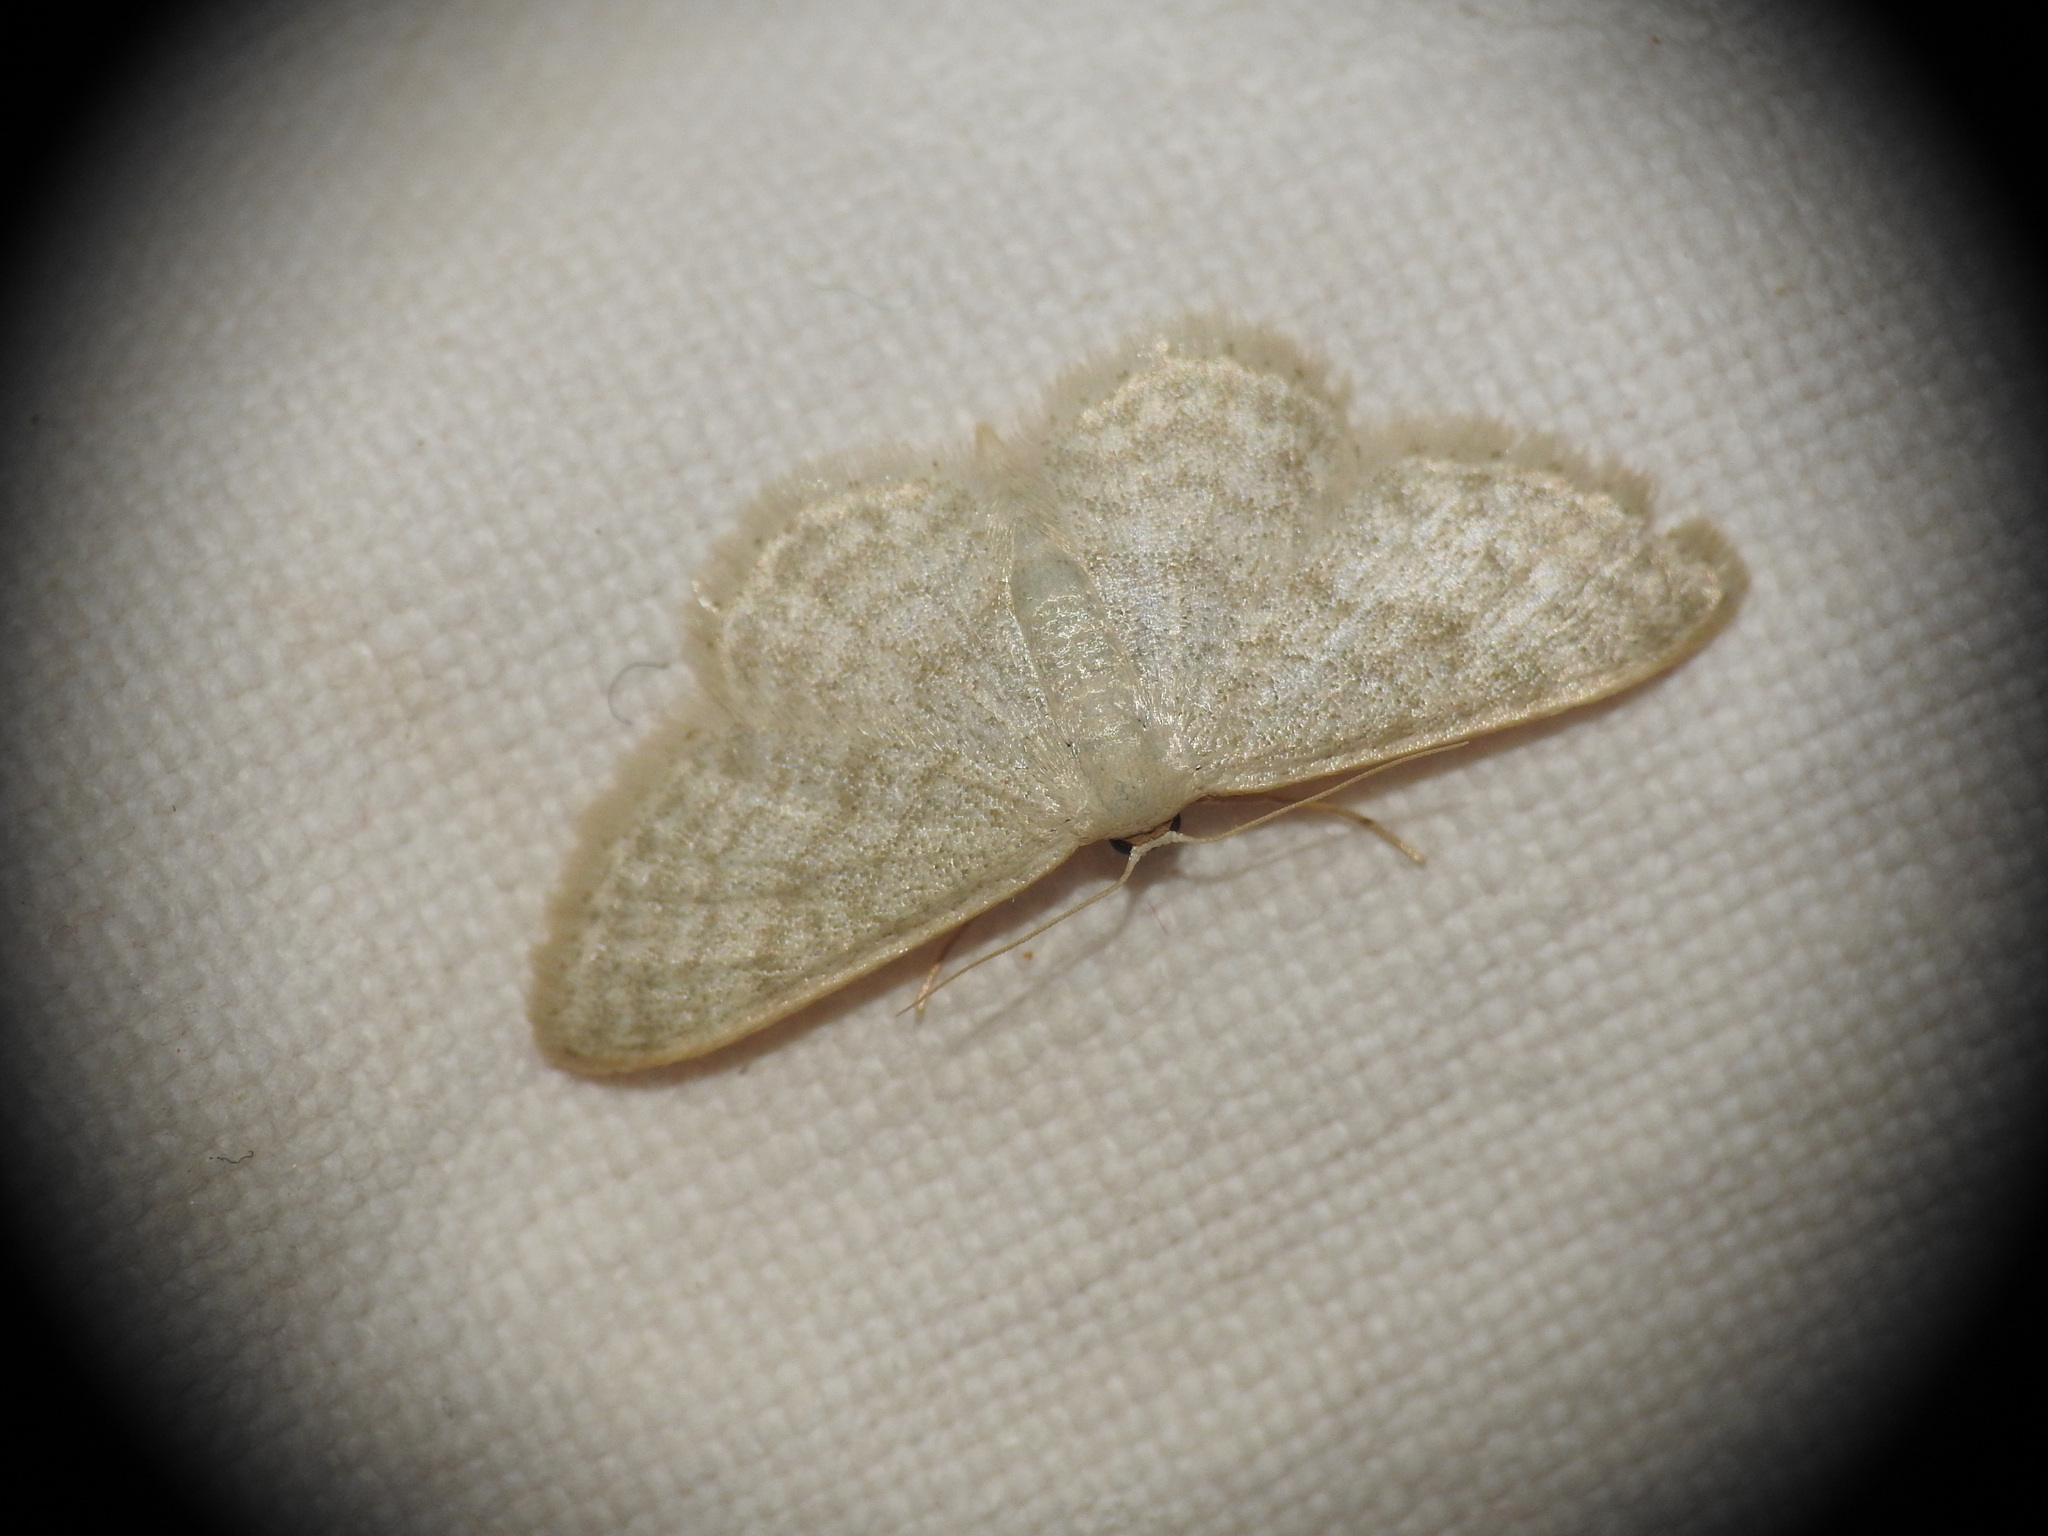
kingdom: Animalia
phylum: Arthropoda
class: Insecta
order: Lepidoptera
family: Geometridae
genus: Idaea
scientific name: Idaea subsericeata
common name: Satin wave
